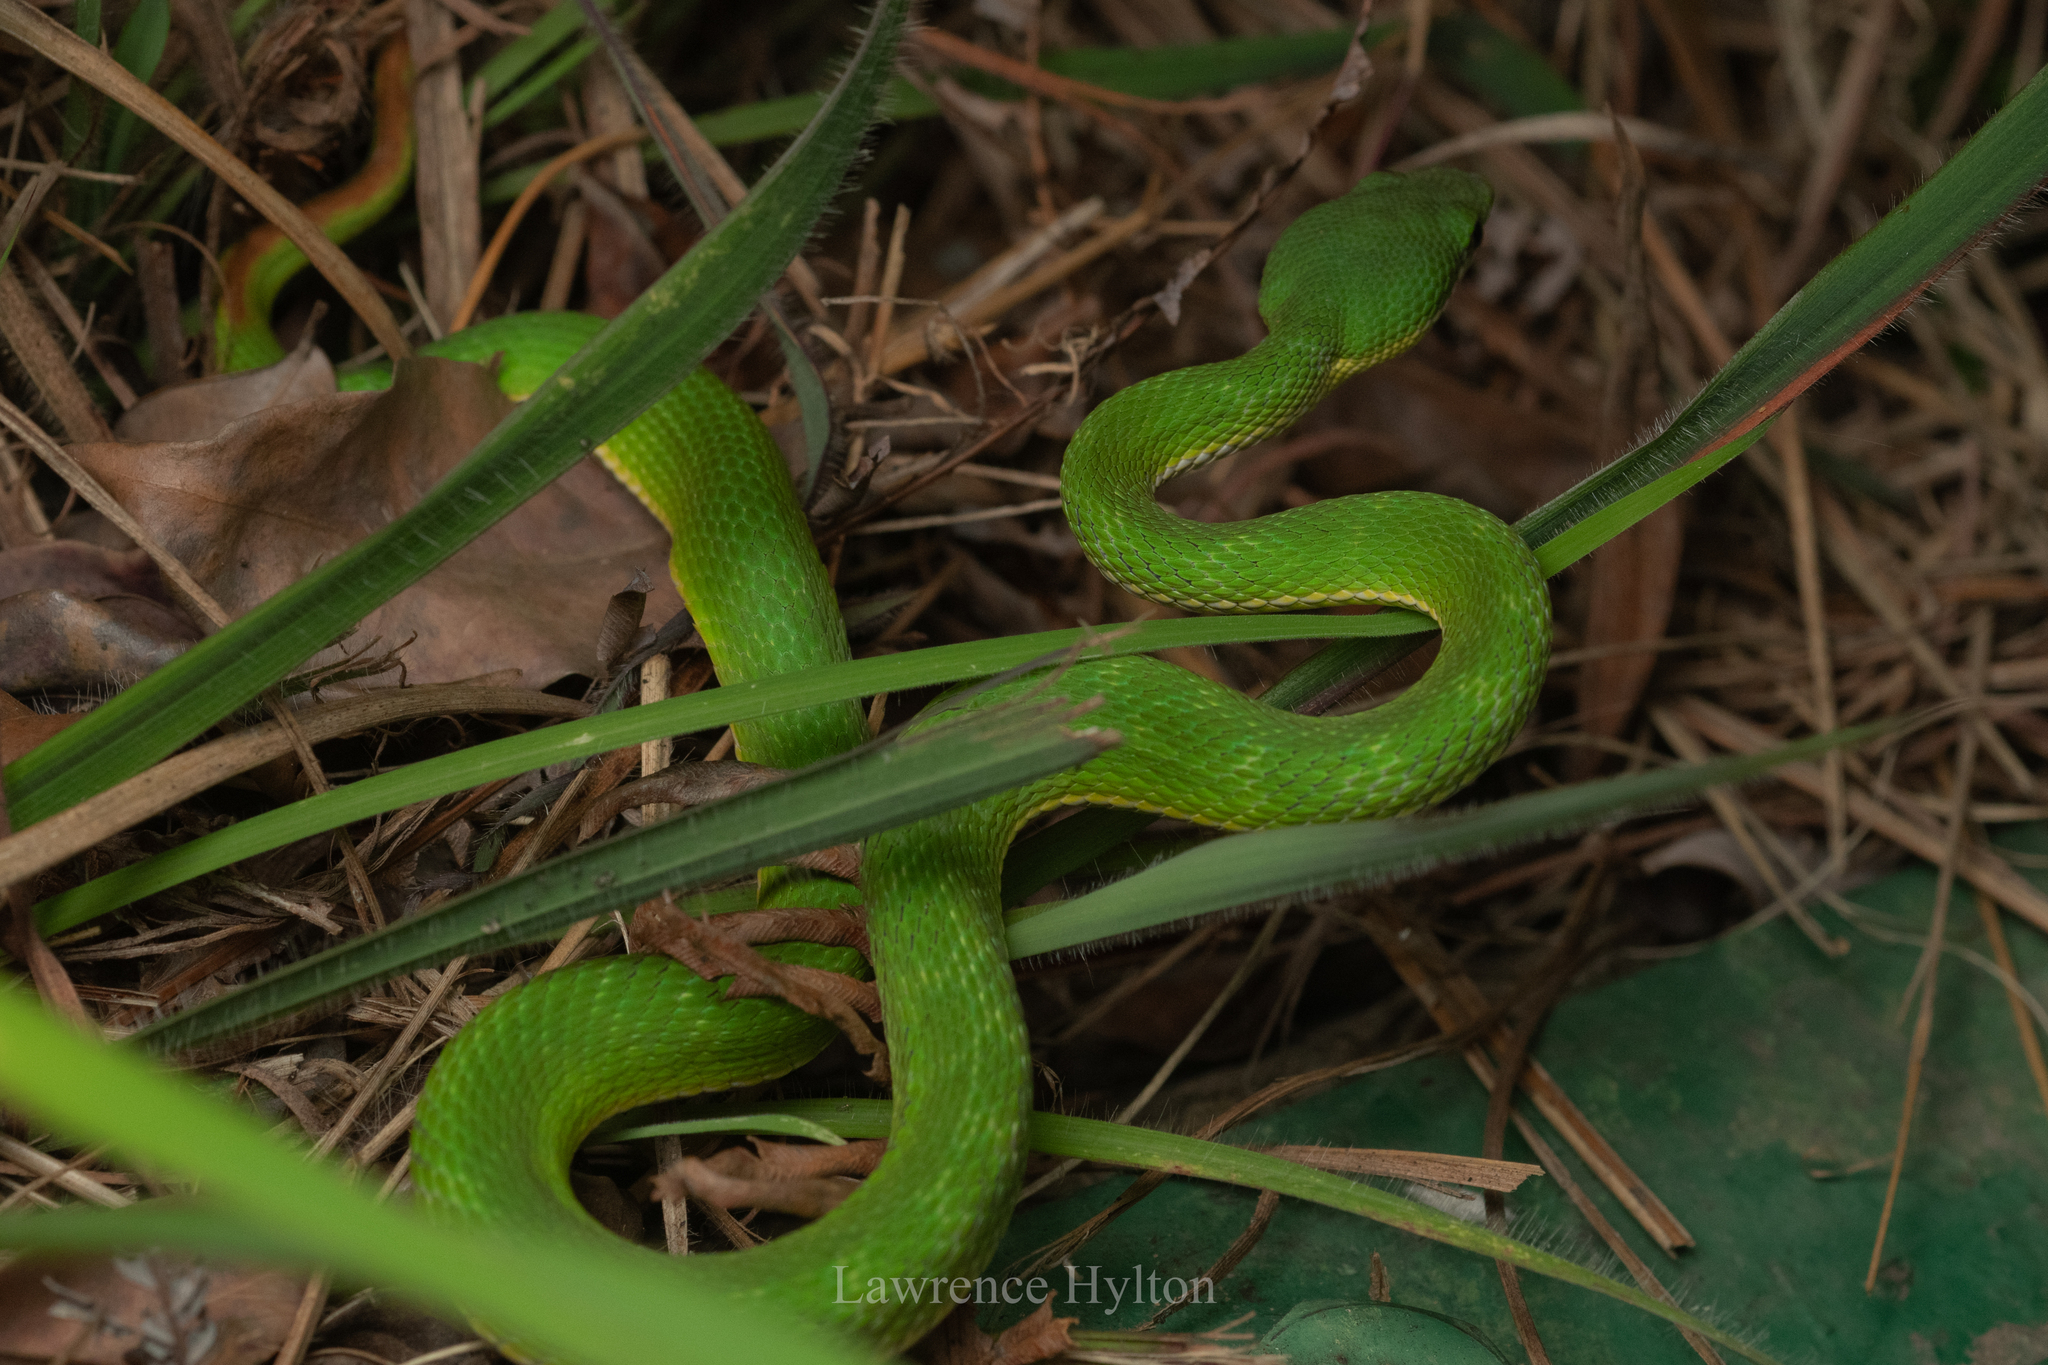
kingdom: Animalia
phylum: Chordata
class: Squamata
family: Viperidae
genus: Trimeresurus
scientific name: Trimeresurus albolabris
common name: White-lipped pitviper
